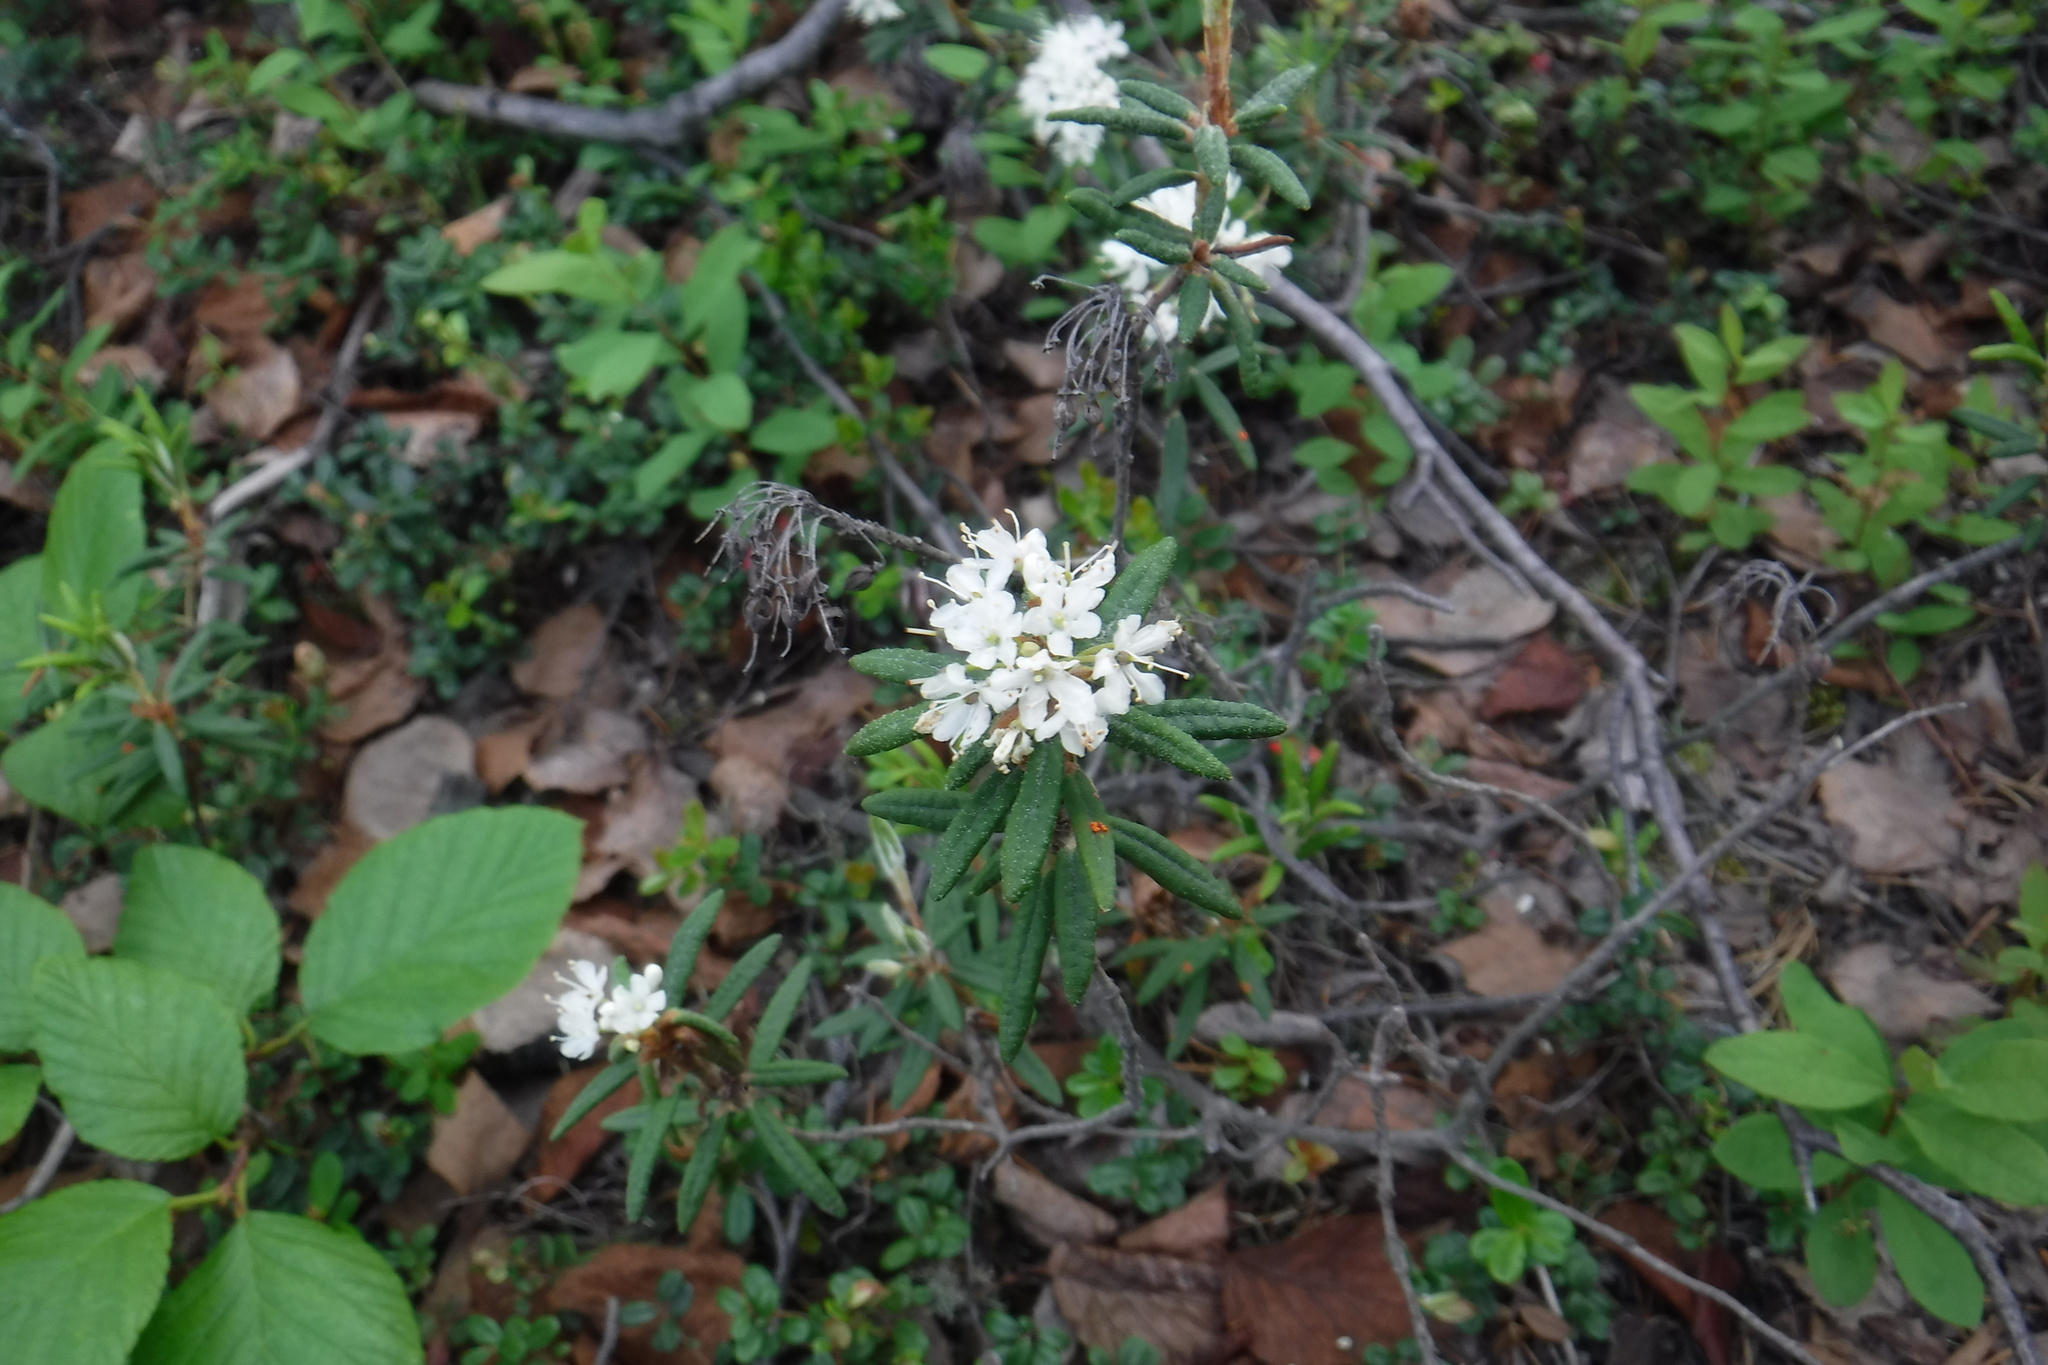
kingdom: Plantae
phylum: Tracheophyta
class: Magnoliopsida
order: Ericales
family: Ericaceae
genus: Rhododendron
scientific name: Rhododendron groenlandicum
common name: Bog labrador tea
